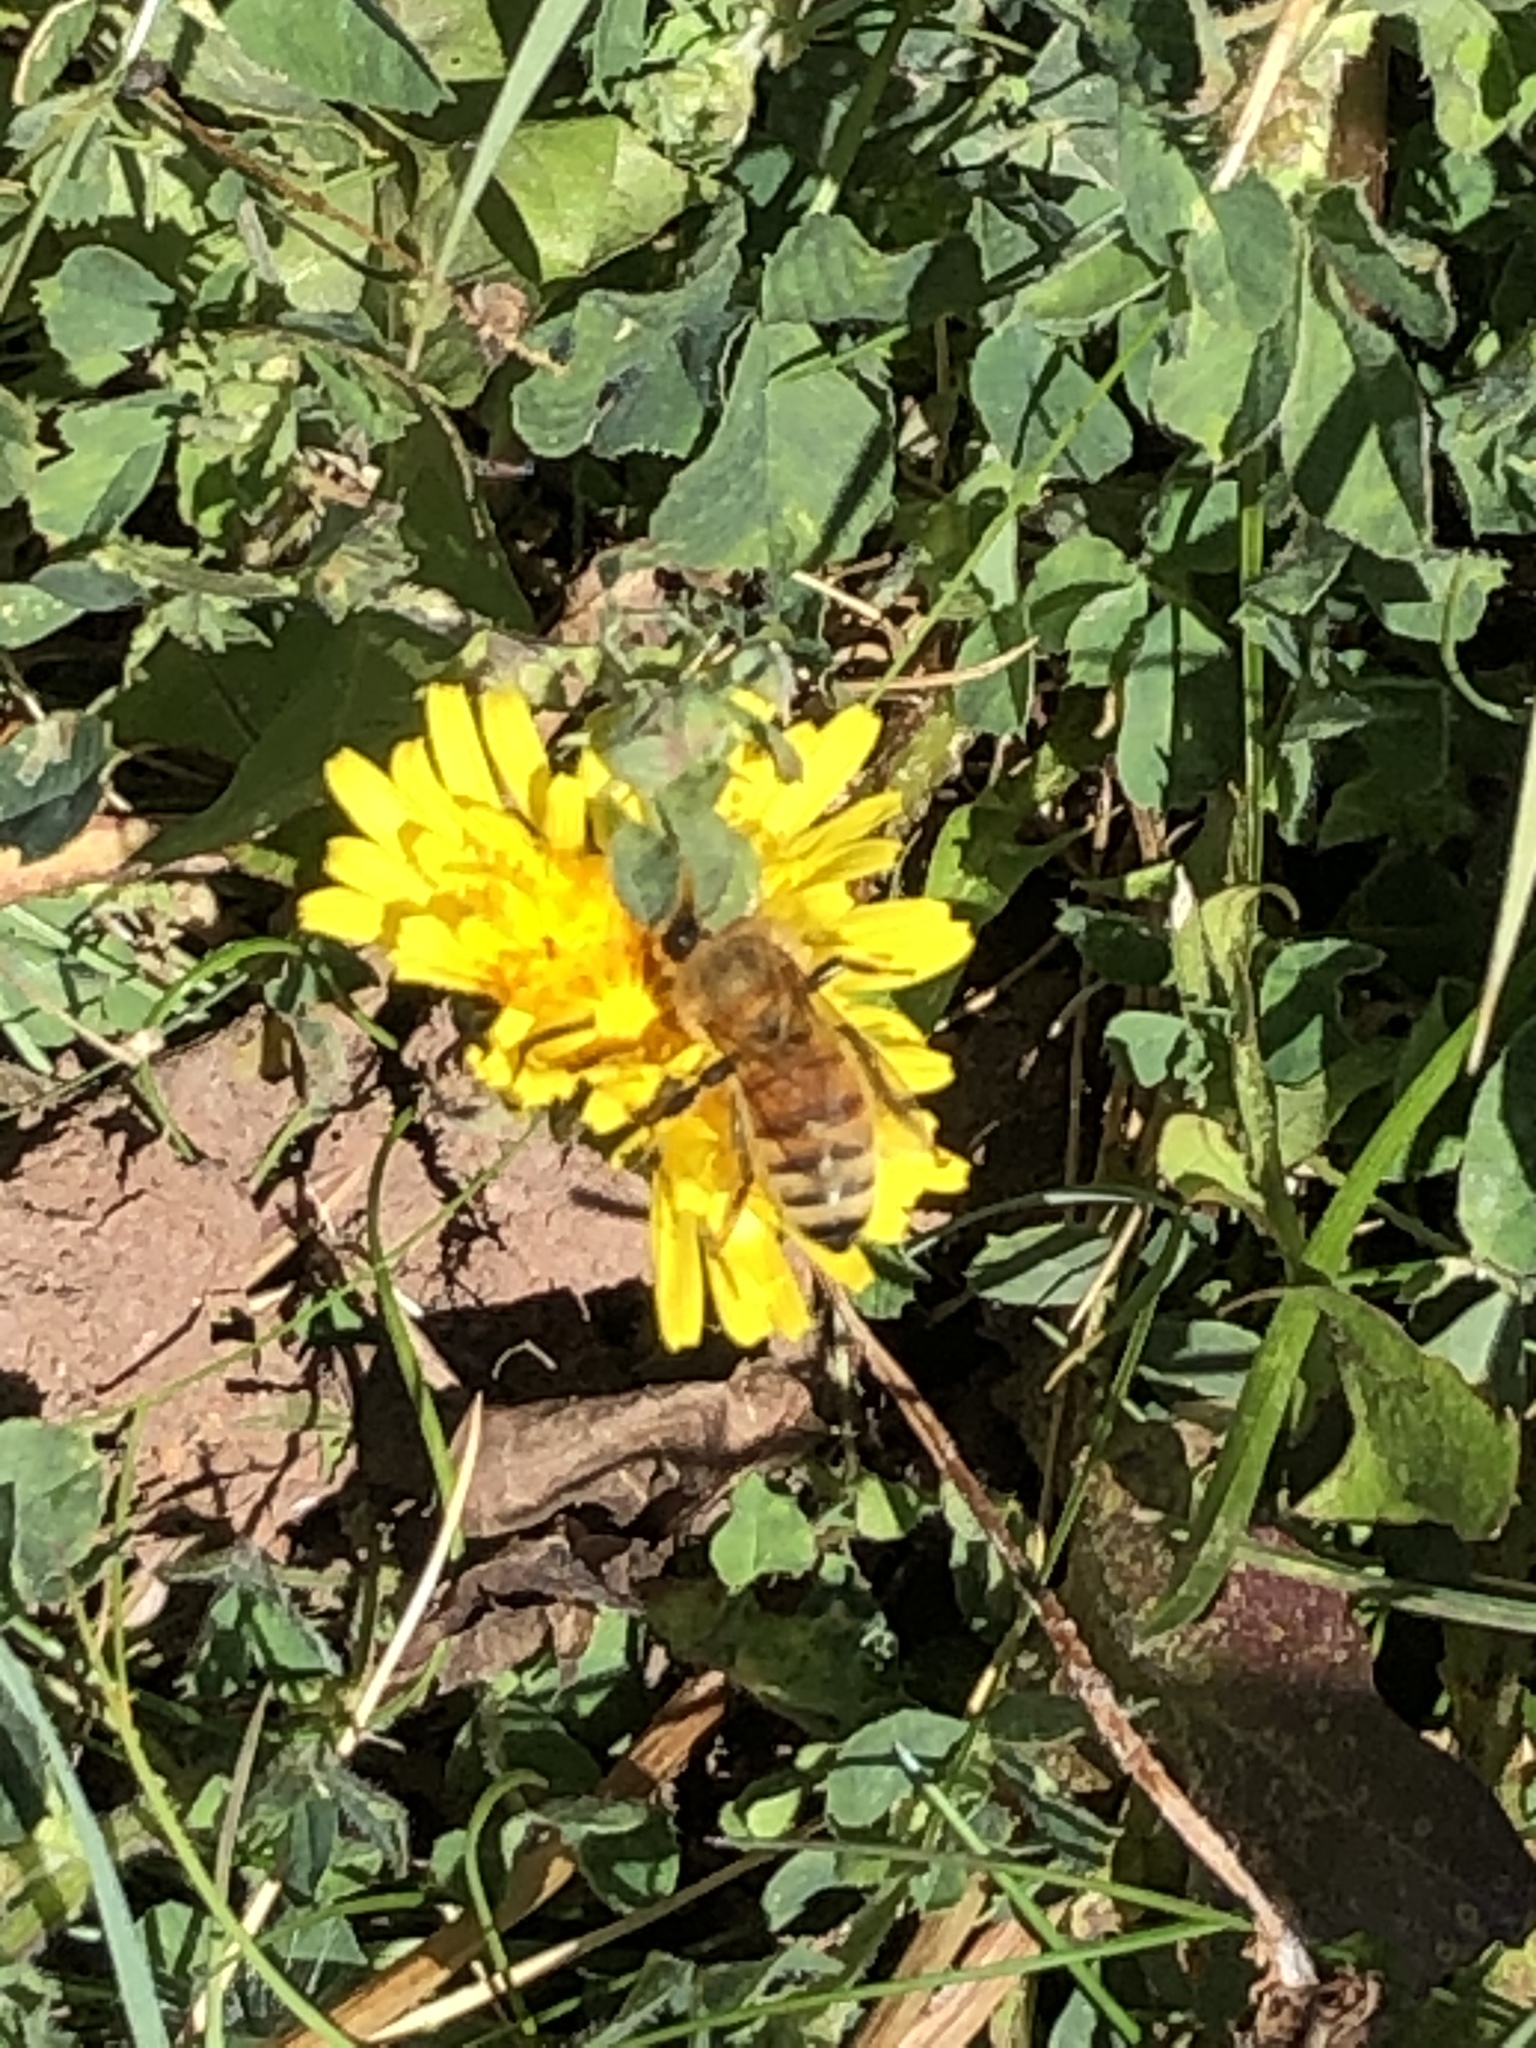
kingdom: Animalia
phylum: Arthropoda
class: Insecta
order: Hymenoptera
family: Apidae
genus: Apis
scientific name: Apis mellifera
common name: Honey bee
